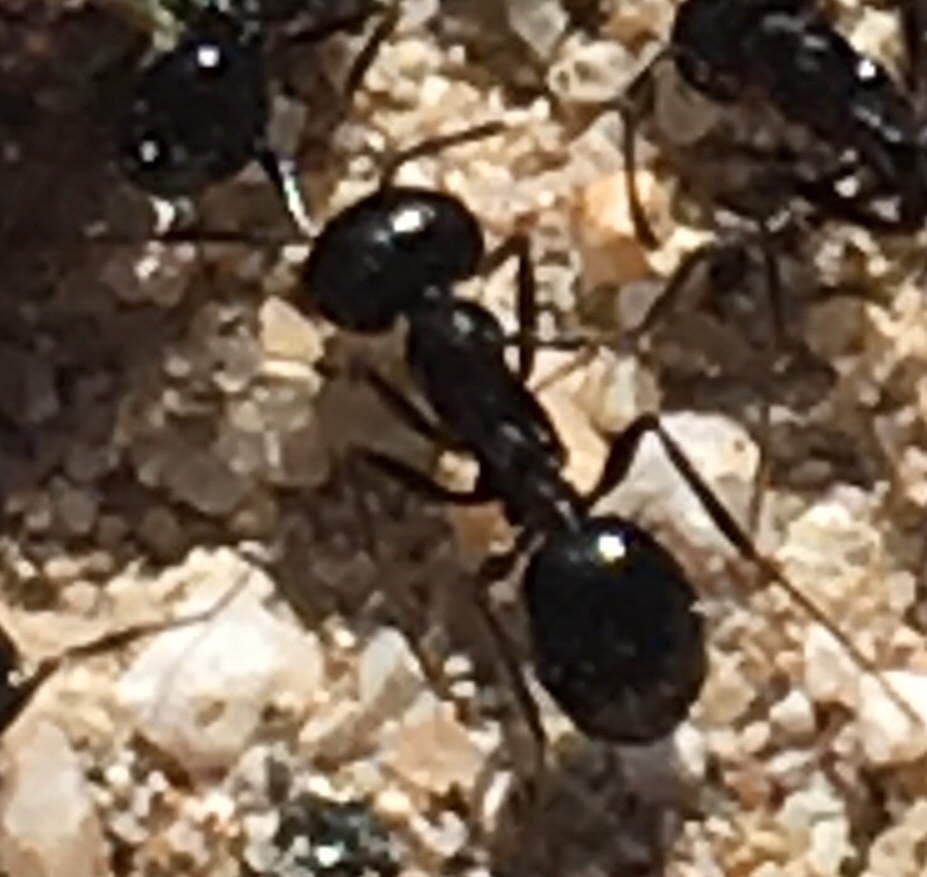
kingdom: Animalia
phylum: Arthropoda
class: Insecta
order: Hymenoptera
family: Formicidae
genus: Messor
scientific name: Messor pergandei
